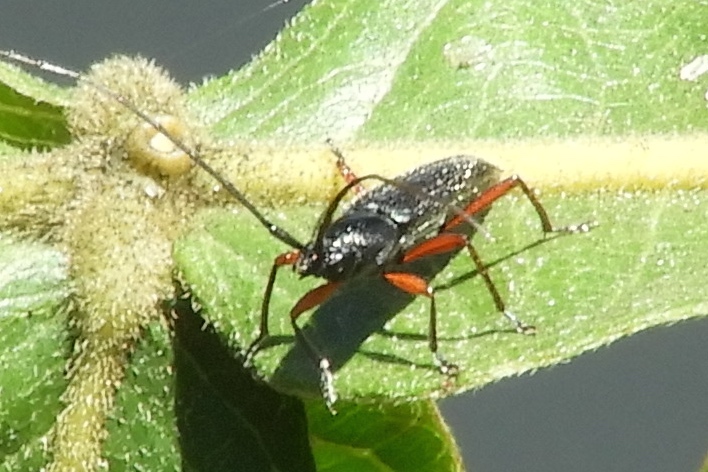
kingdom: Animalia
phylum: Arthropoda
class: Insecta
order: Coleoptera
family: Cerambycidae
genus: Stenosphenus
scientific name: Stenosphenus
